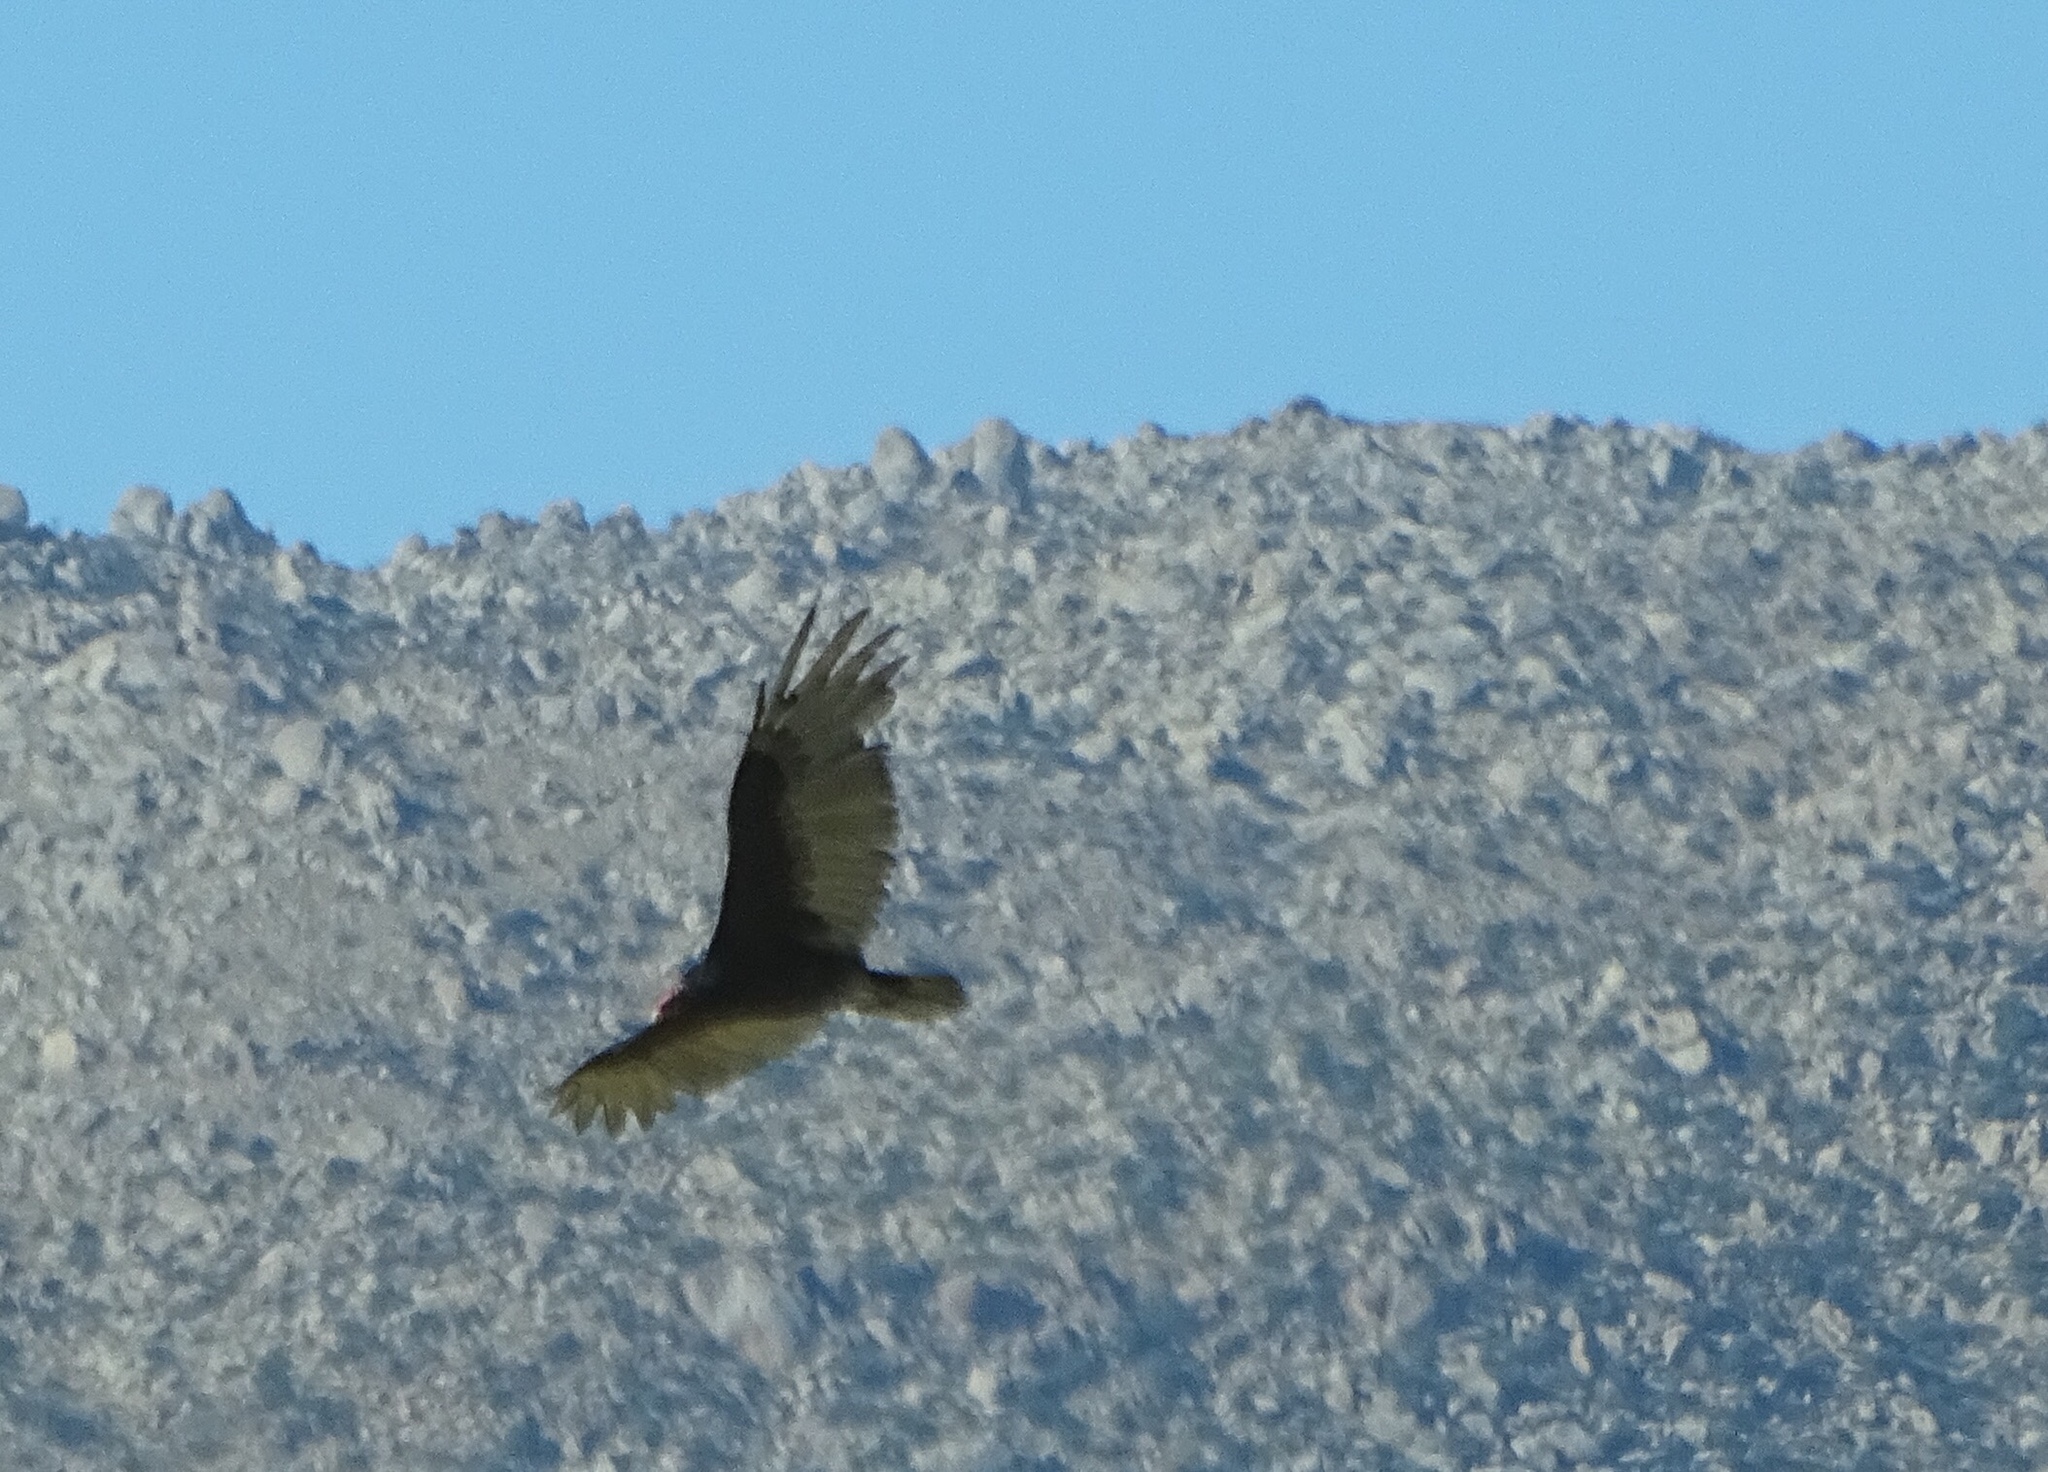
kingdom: Animalia
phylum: Chordata
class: Aves
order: Accipitriformes
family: Cathartidae
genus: Cathartes
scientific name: Cathartes aura
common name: Turkey vulture
